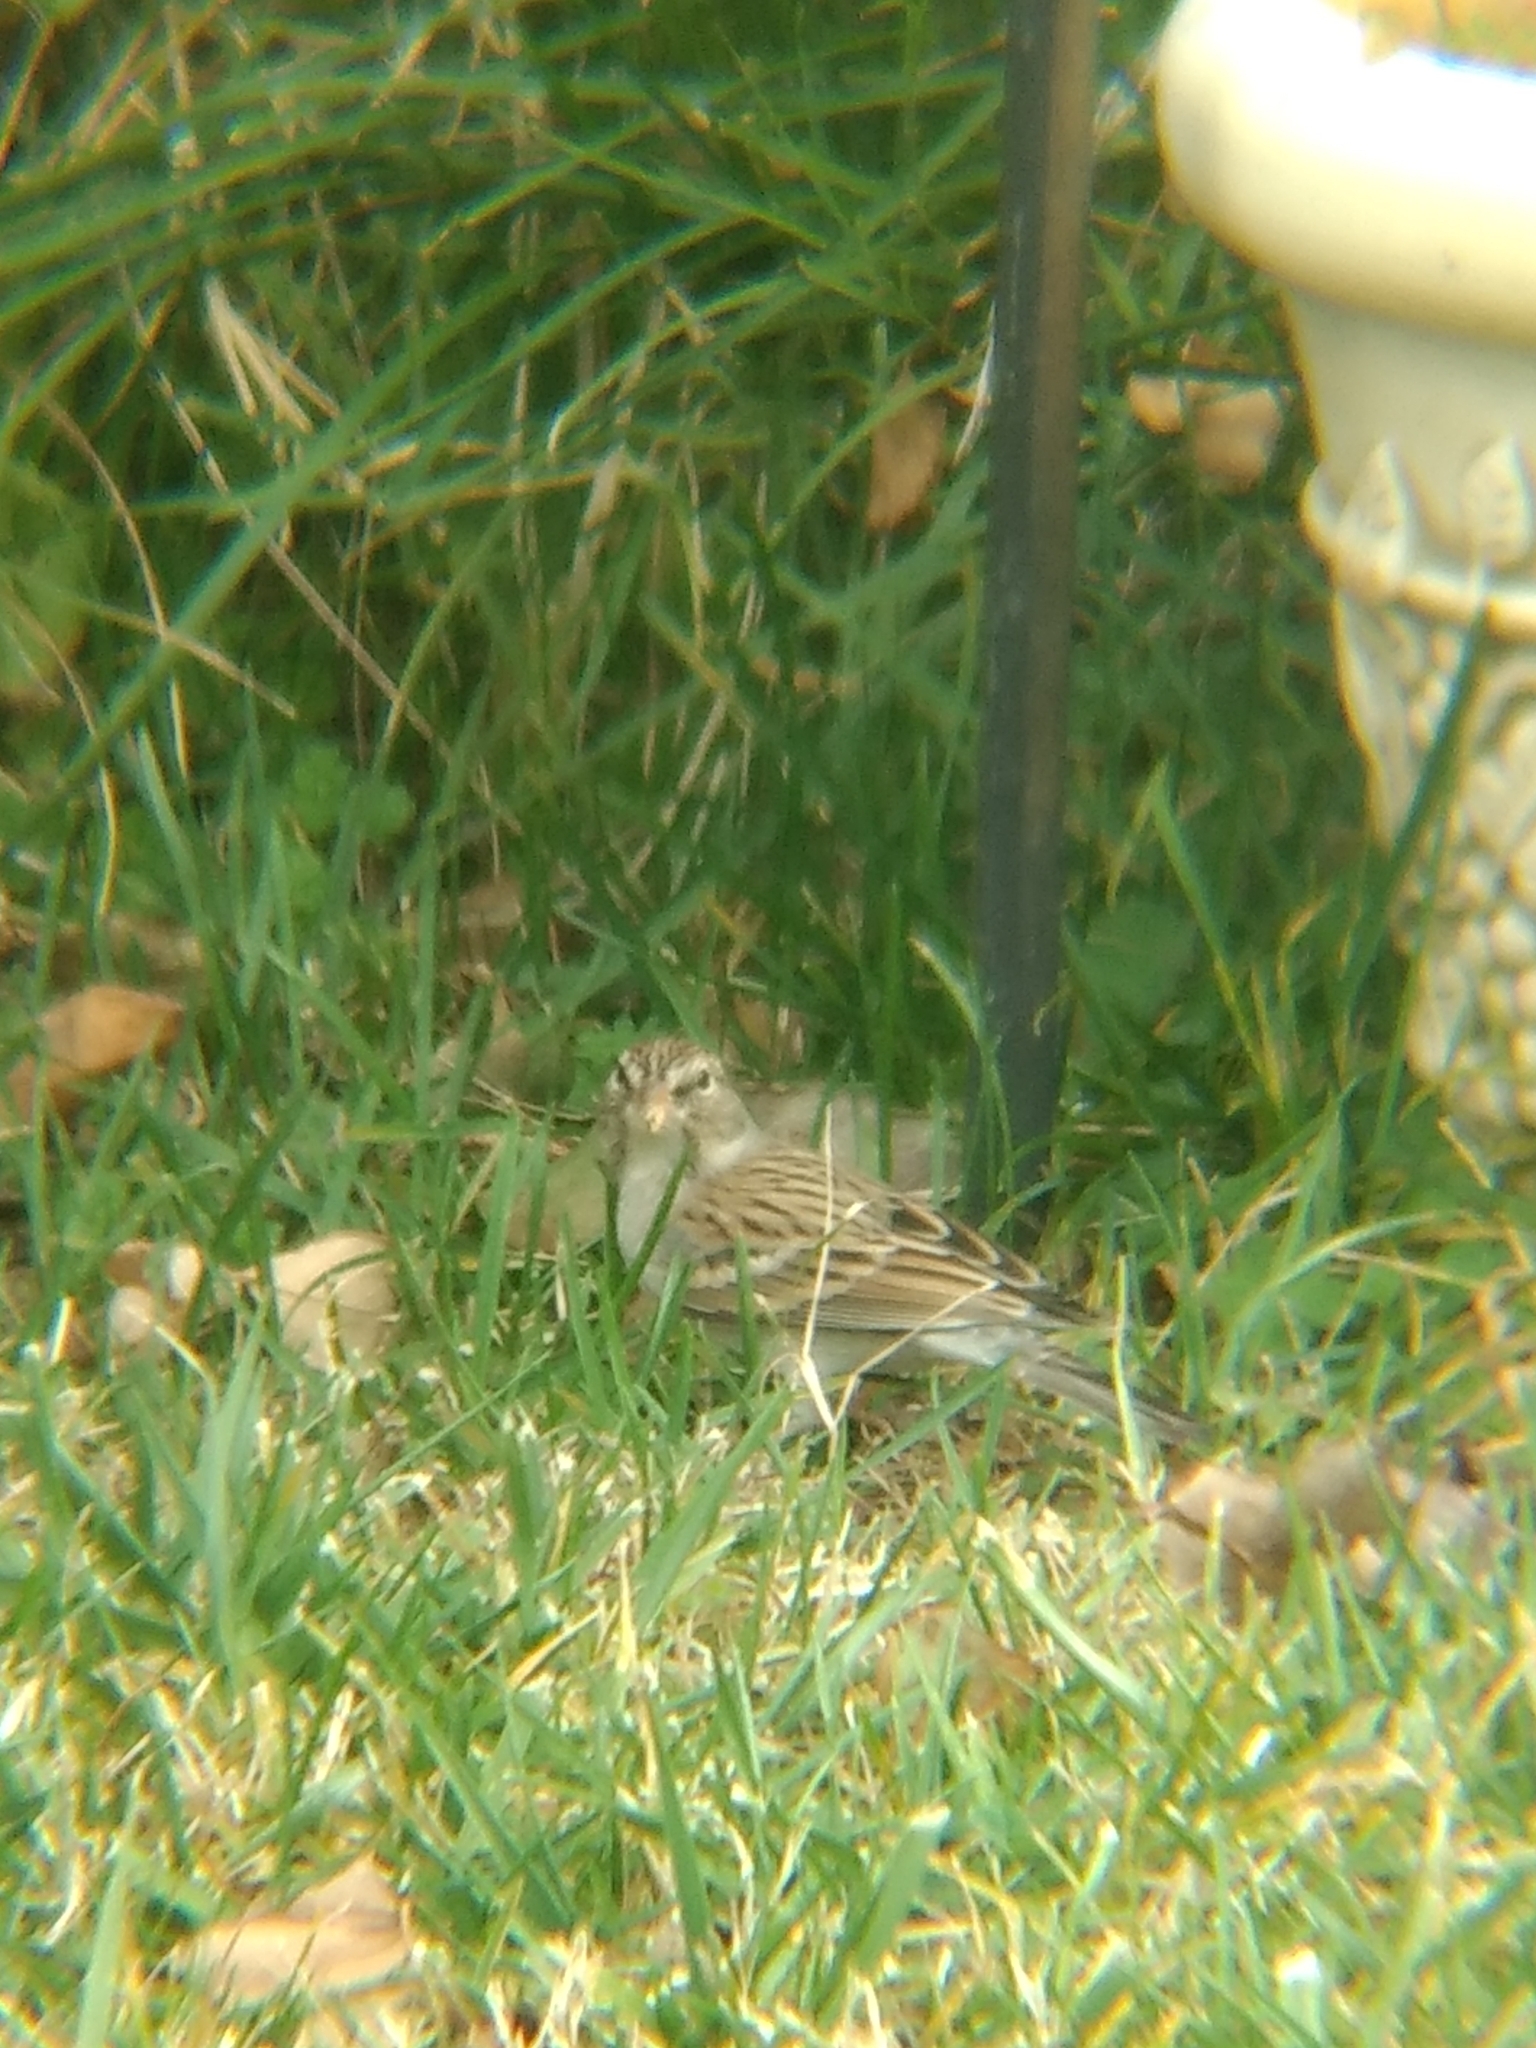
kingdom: Animalia
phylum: Chordata
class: Aves
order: Passeriformes
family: Passerellidae
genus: Spizella
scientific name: Spizella passerina
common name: Chipping sparrow
